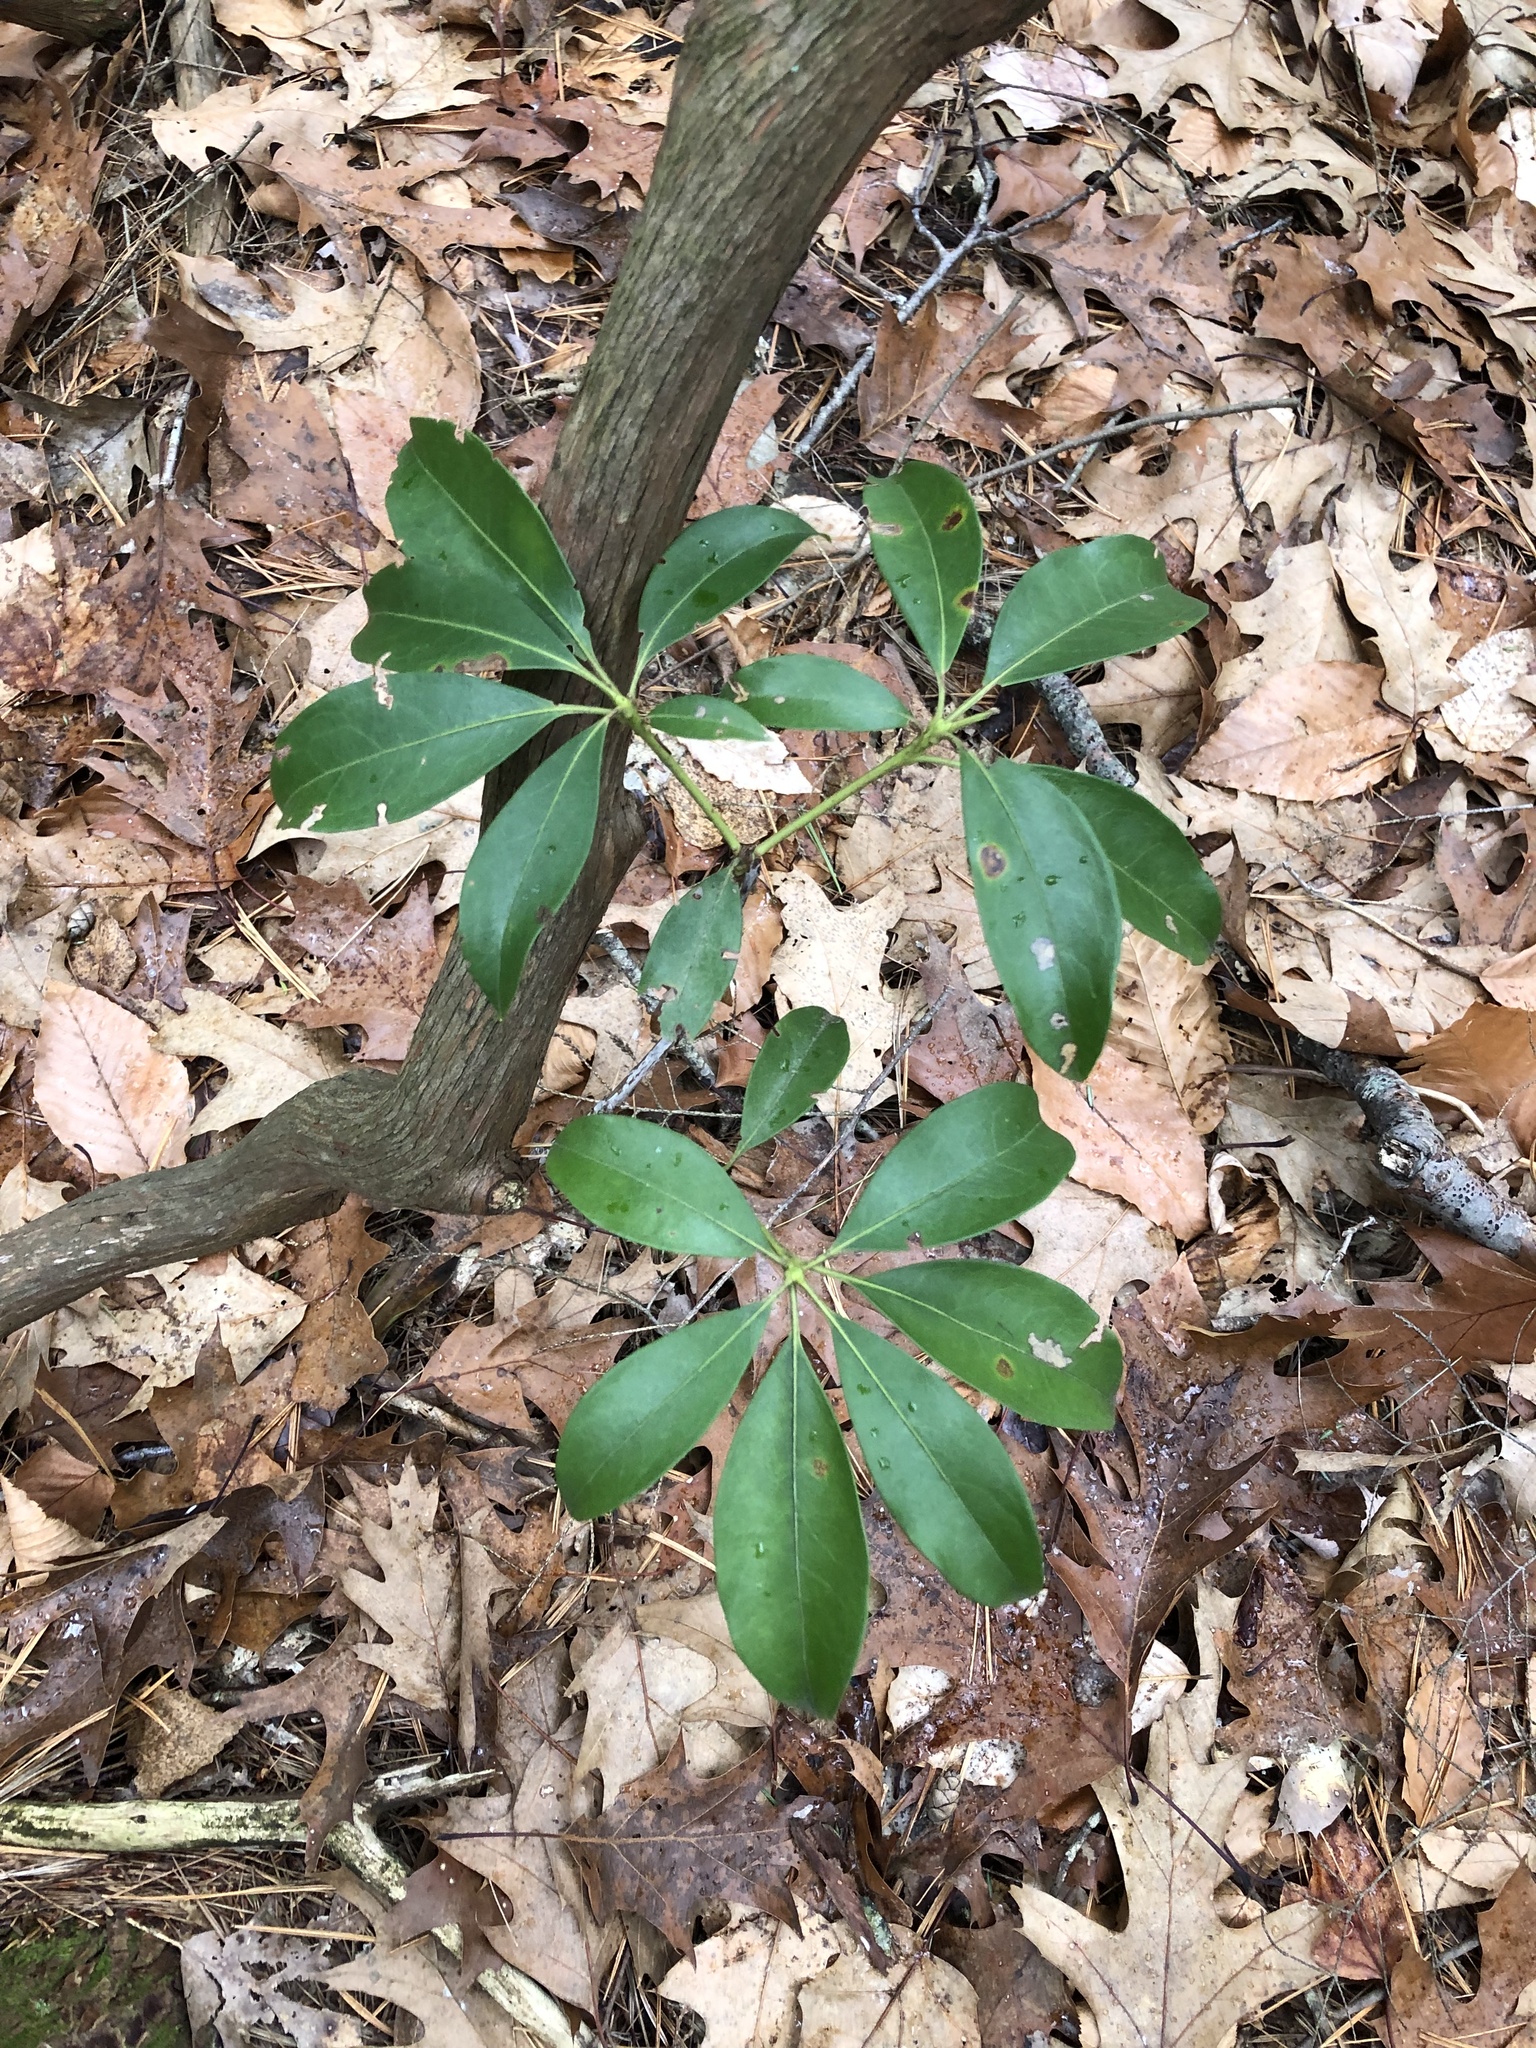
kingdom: Plantae
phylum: Tracheophyta
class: Magnoliopsida
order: Ericales
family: Ericaceae
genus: Kalmia
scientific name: Kalmia latifolia
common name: Mountain-laurel
